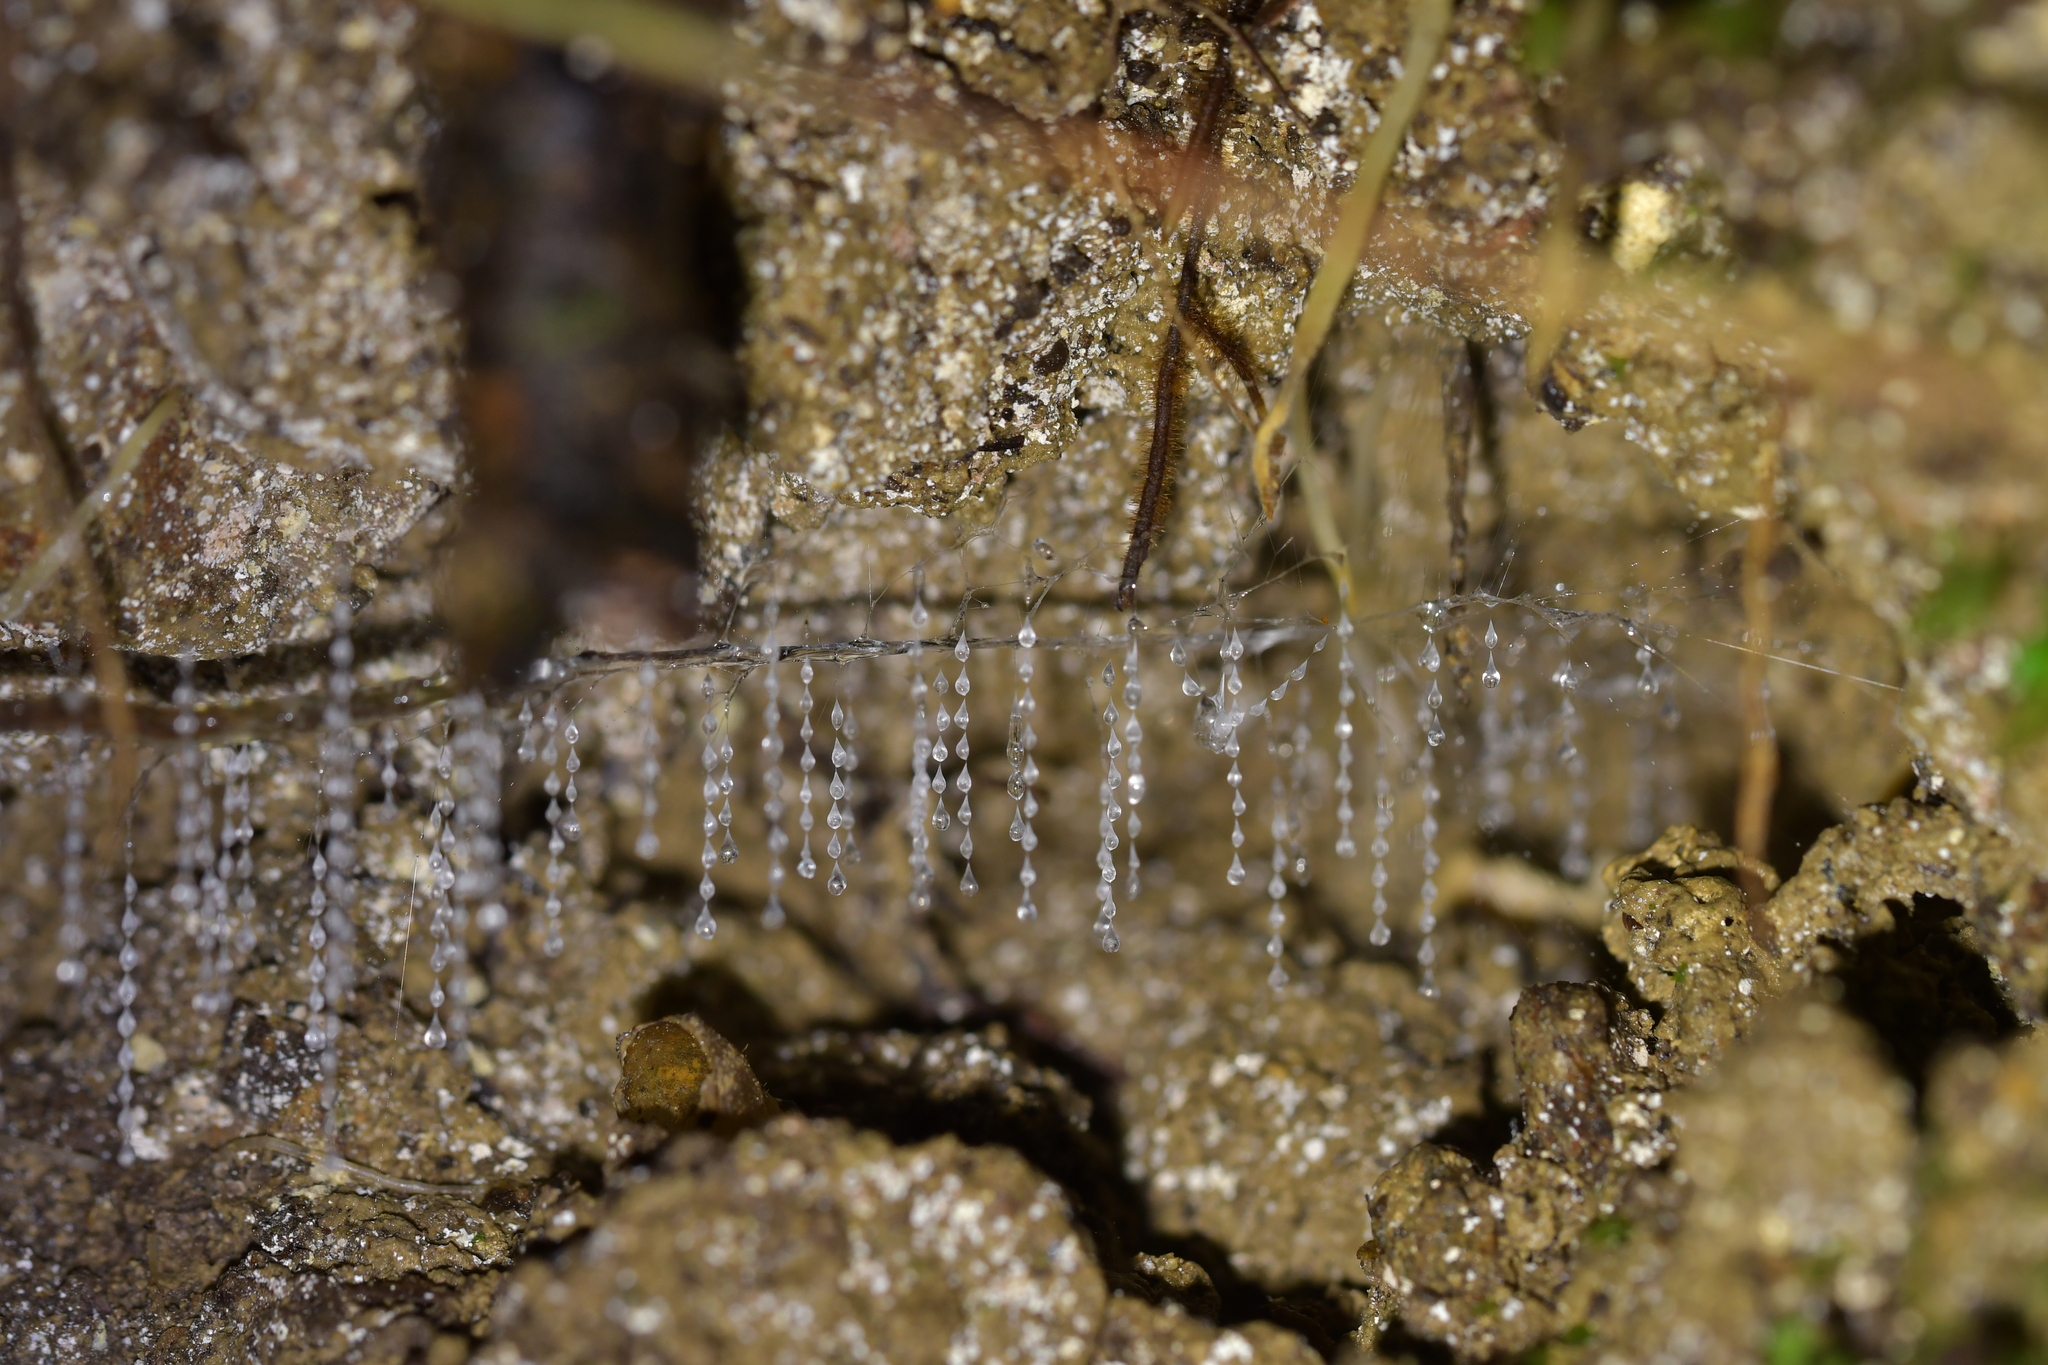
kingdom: Animalia
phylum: Arthropoda
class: Insecta
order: Diptera
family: Keroplatidae
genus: Arachnocampa
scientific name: Arachnocampa luminosa
